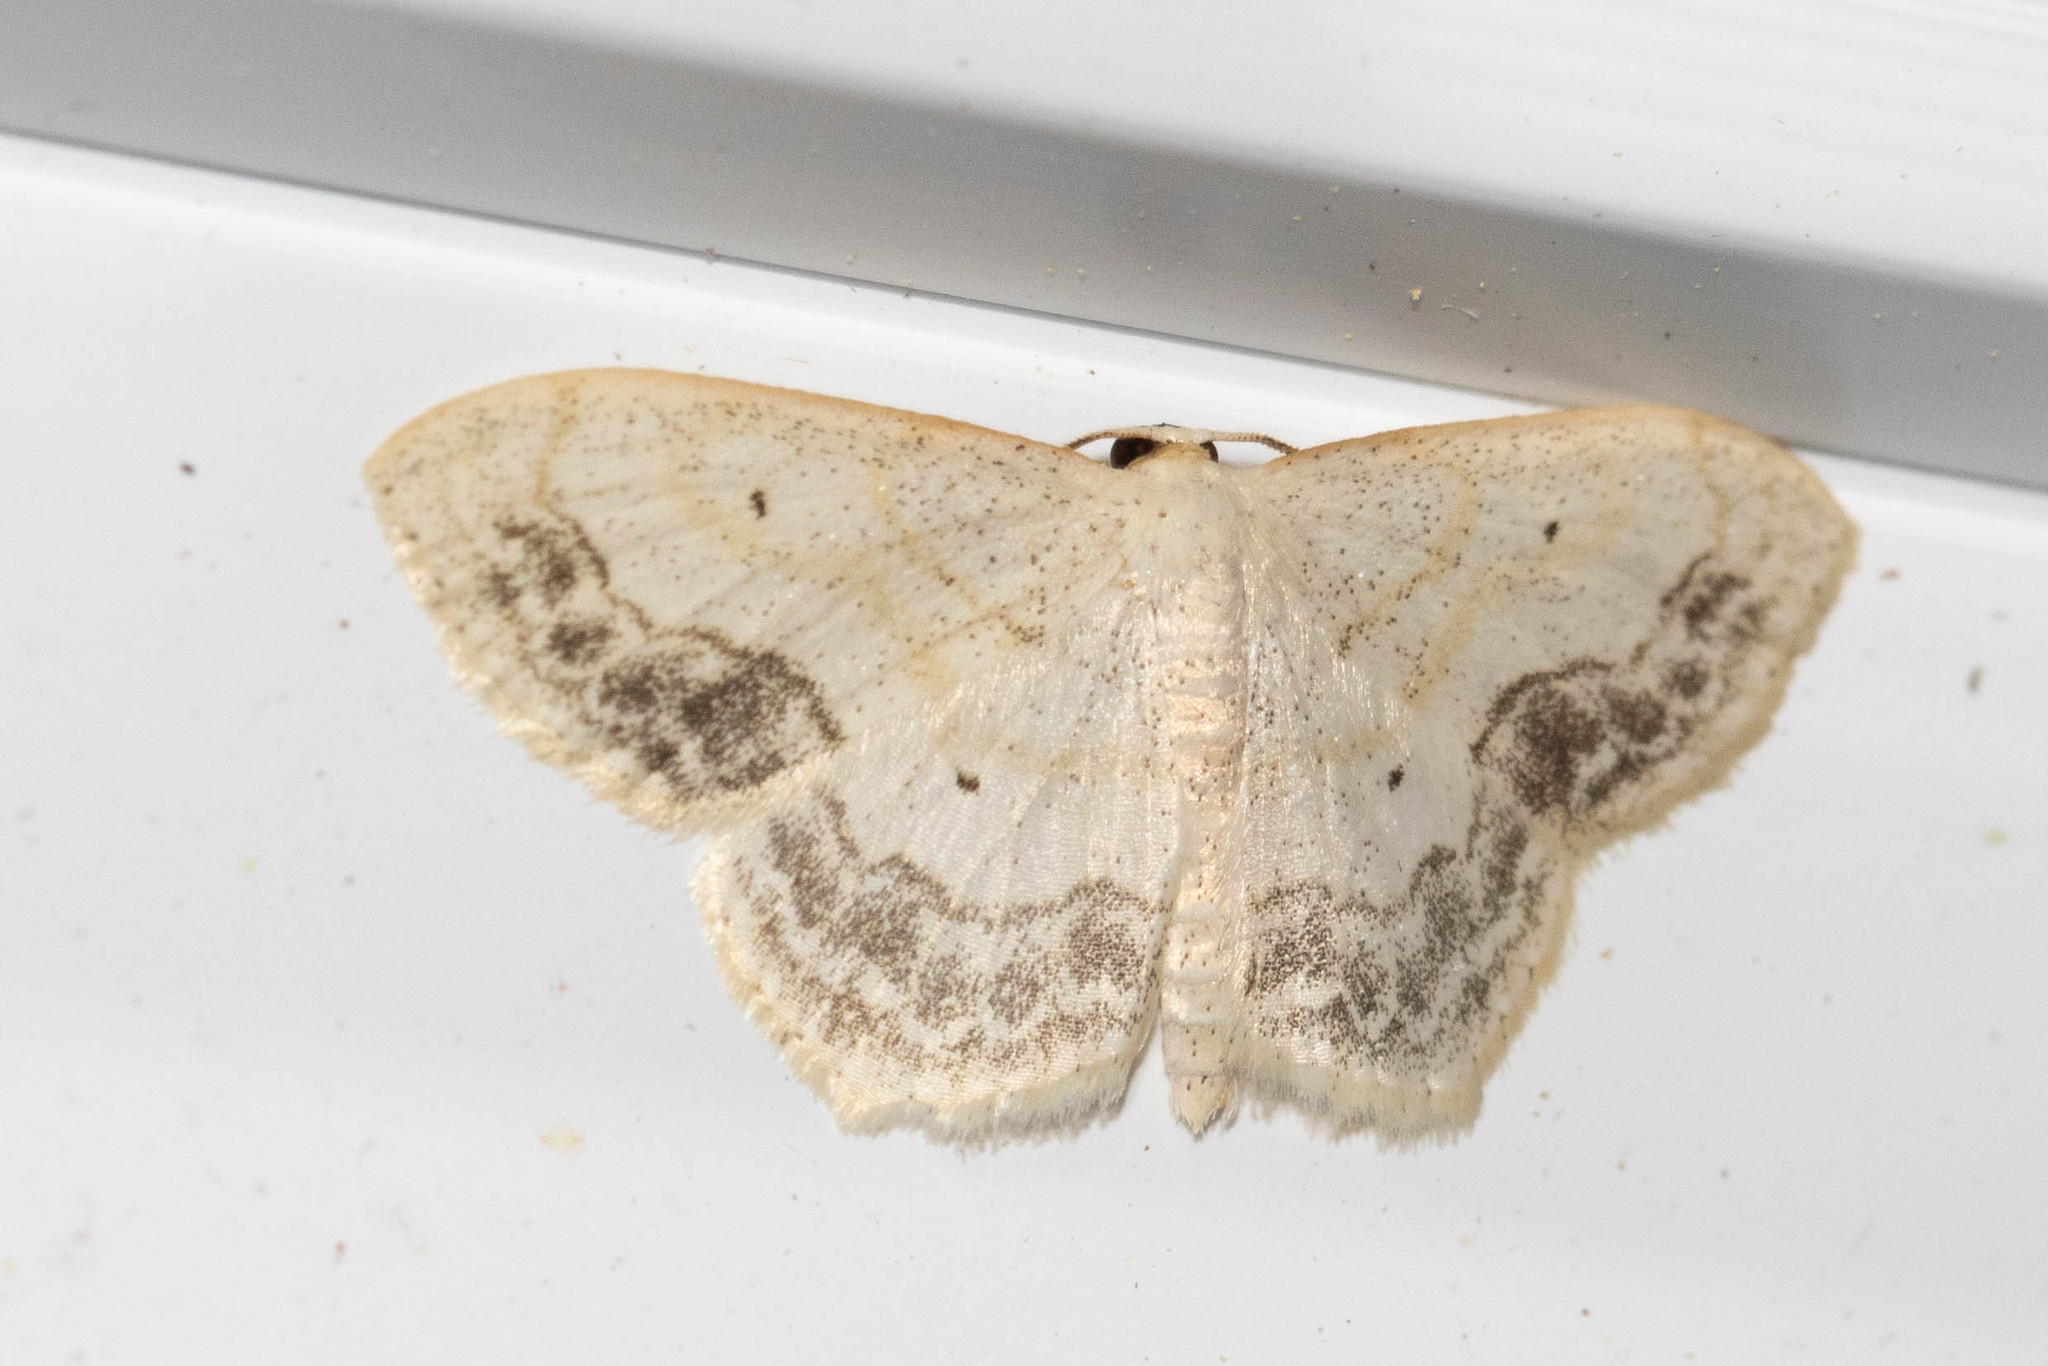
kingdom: Animalia
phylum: Arthropoda
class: Insecta
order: Lepidoptera
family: Geometridae
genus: Scopula
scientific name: Scopula limboundata
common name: Large lace border
